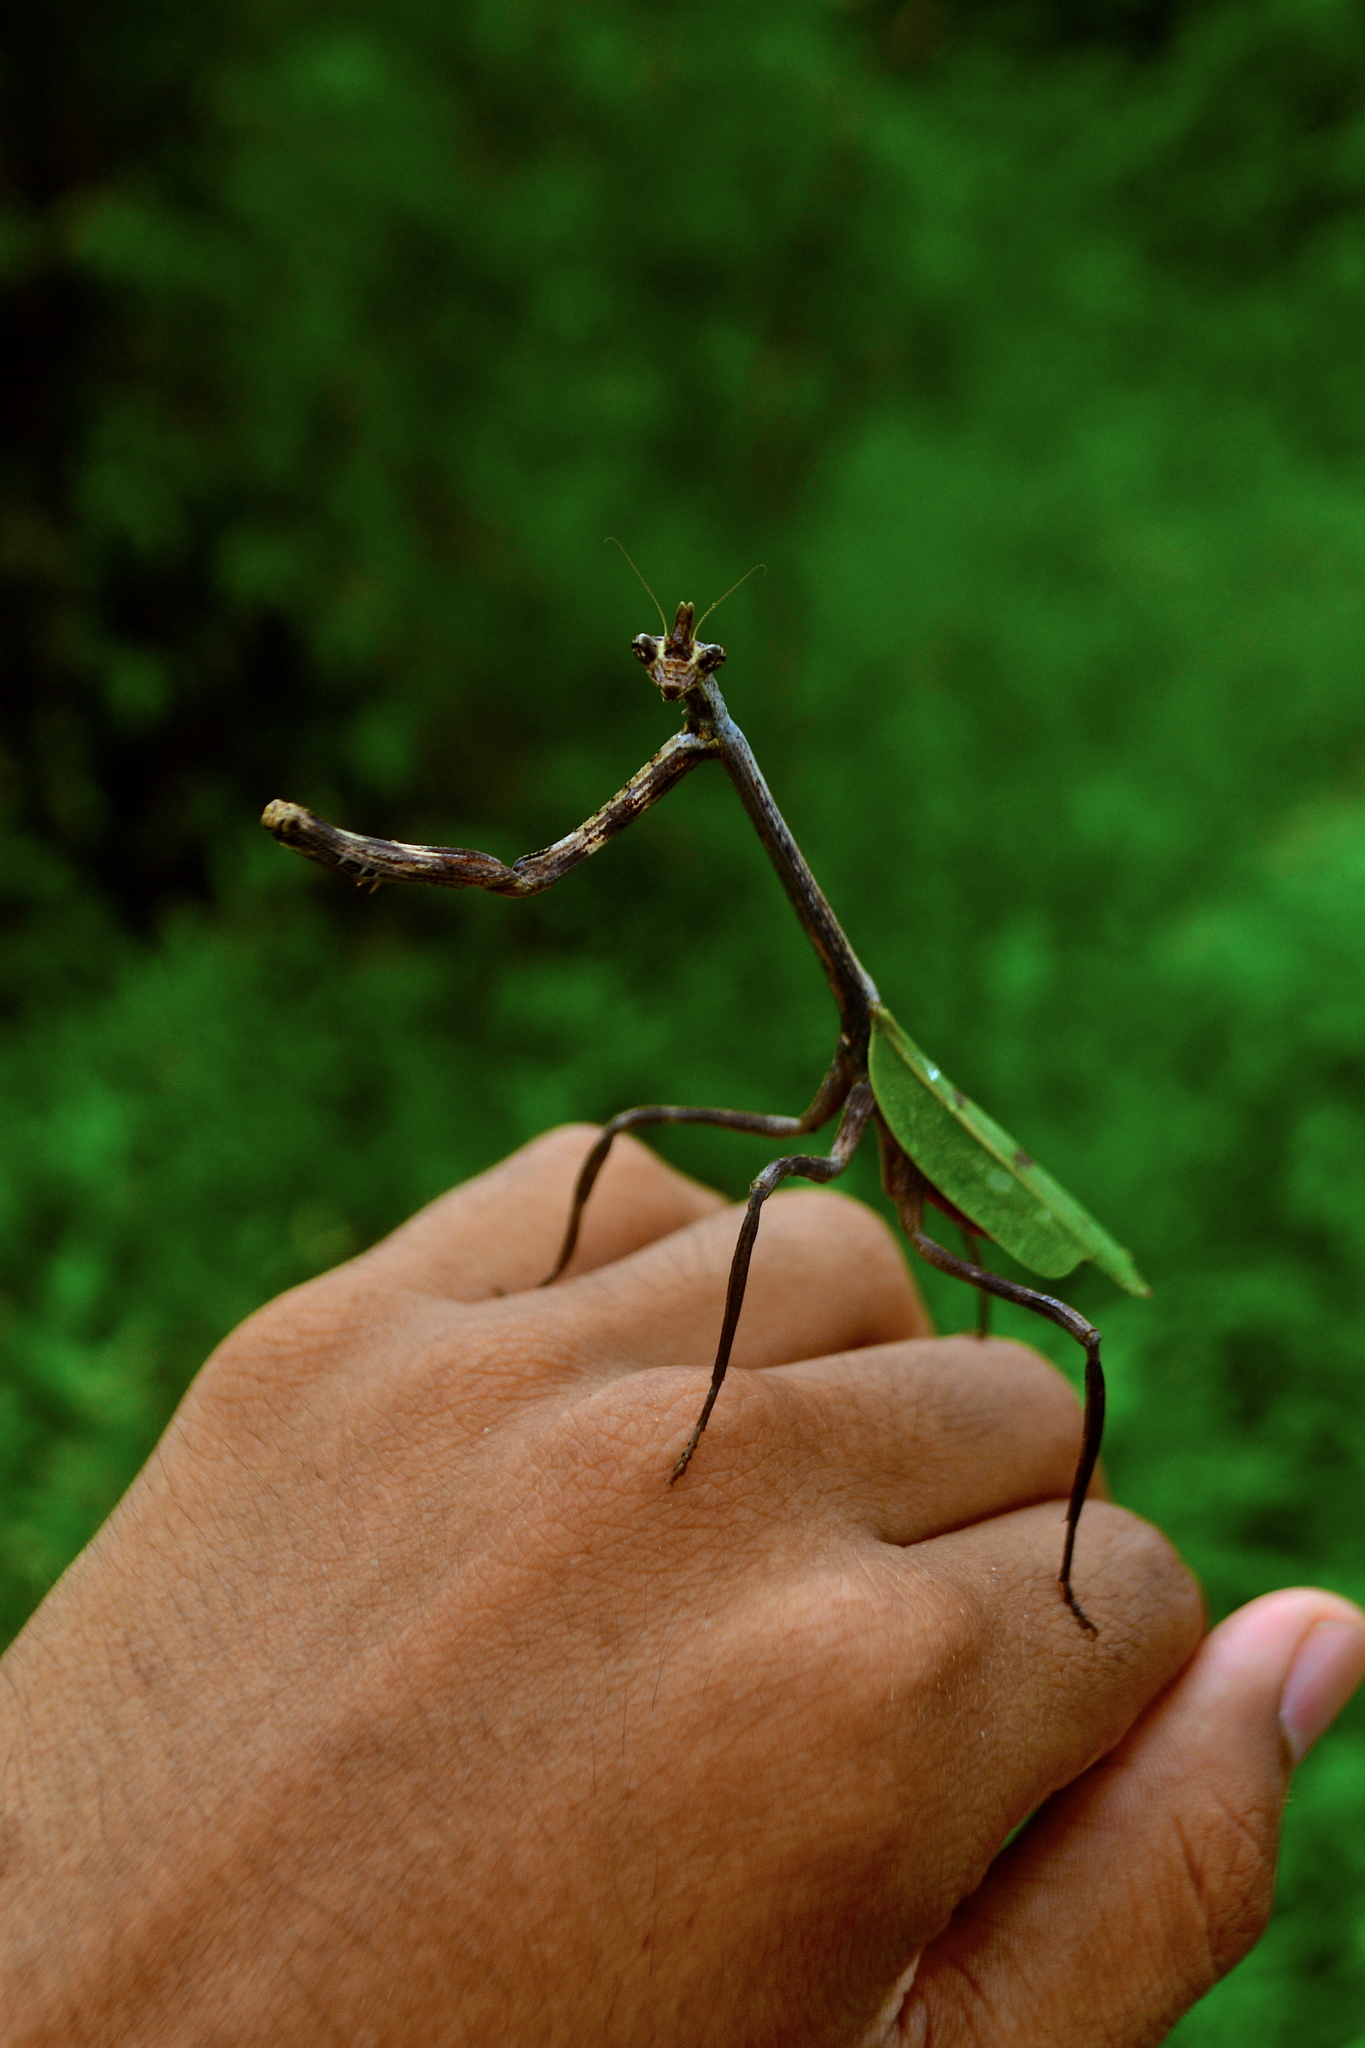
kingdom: Animalia
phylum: Arthropoda
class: Insecta
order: Mantodea
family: Mantidae
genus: Pseudovates
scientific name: Pseudovates chlorophaea
